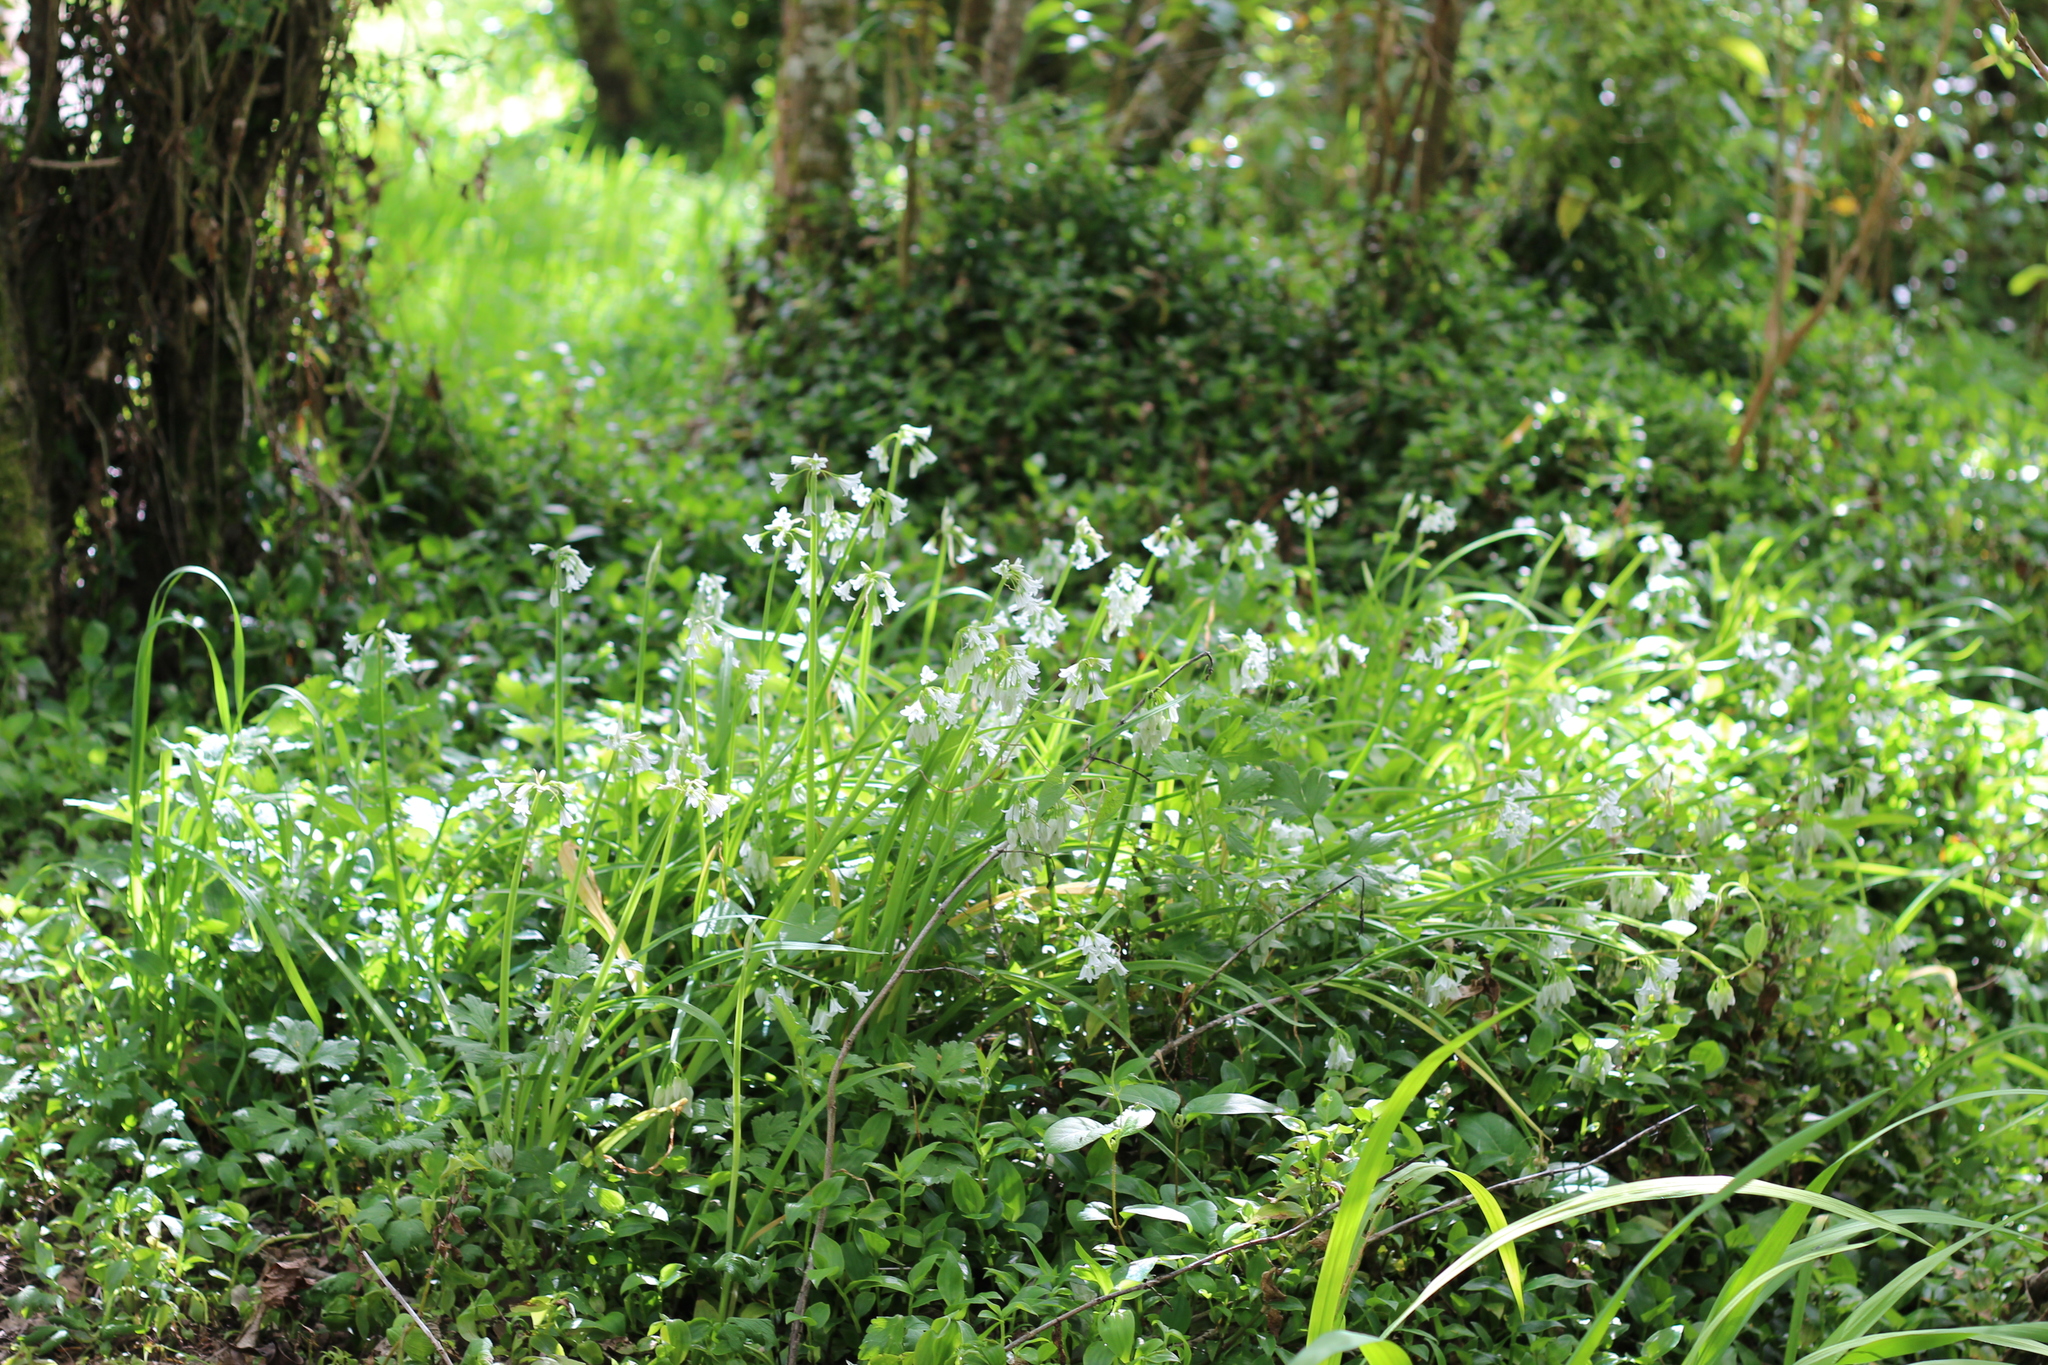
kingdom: Plantae
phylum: Tracheophyta
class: Liliopsida
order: Asparagales
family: Amaryllidaceae
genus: Allium
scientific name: Allium triquetrum
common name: Three-cornered garlic
